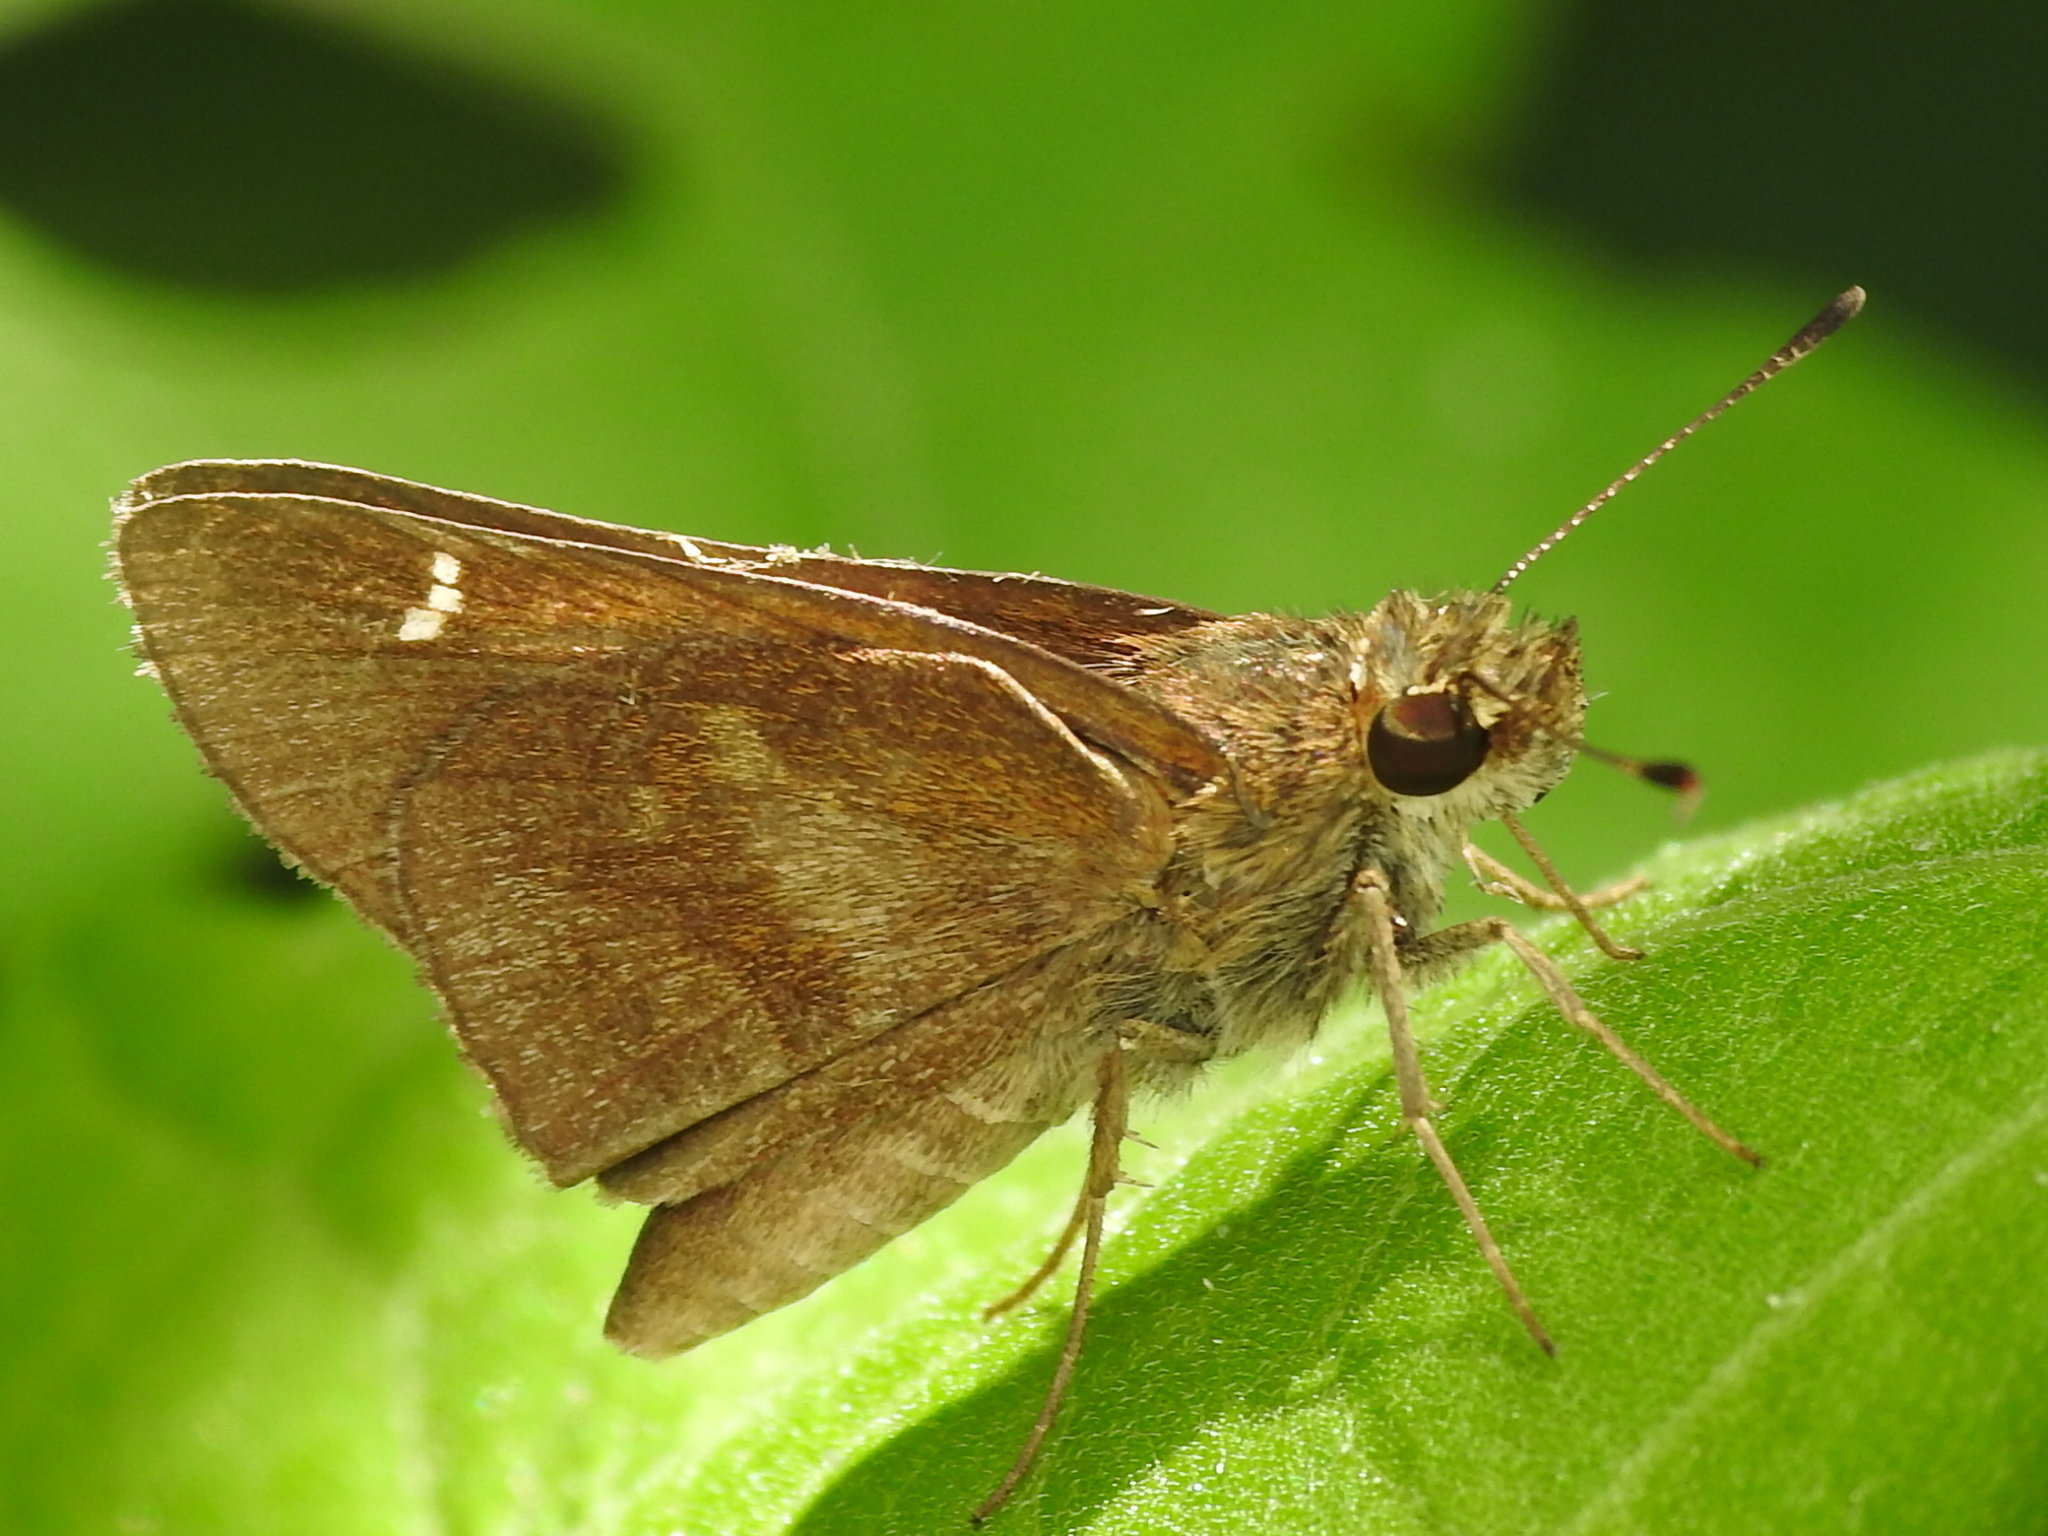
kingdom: Animalia
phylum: Arthropoda
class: Insecta
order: Lepidoptera
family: Hesperiidae
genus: Lerema
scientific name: Lerema accius
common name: Clouded skipper
